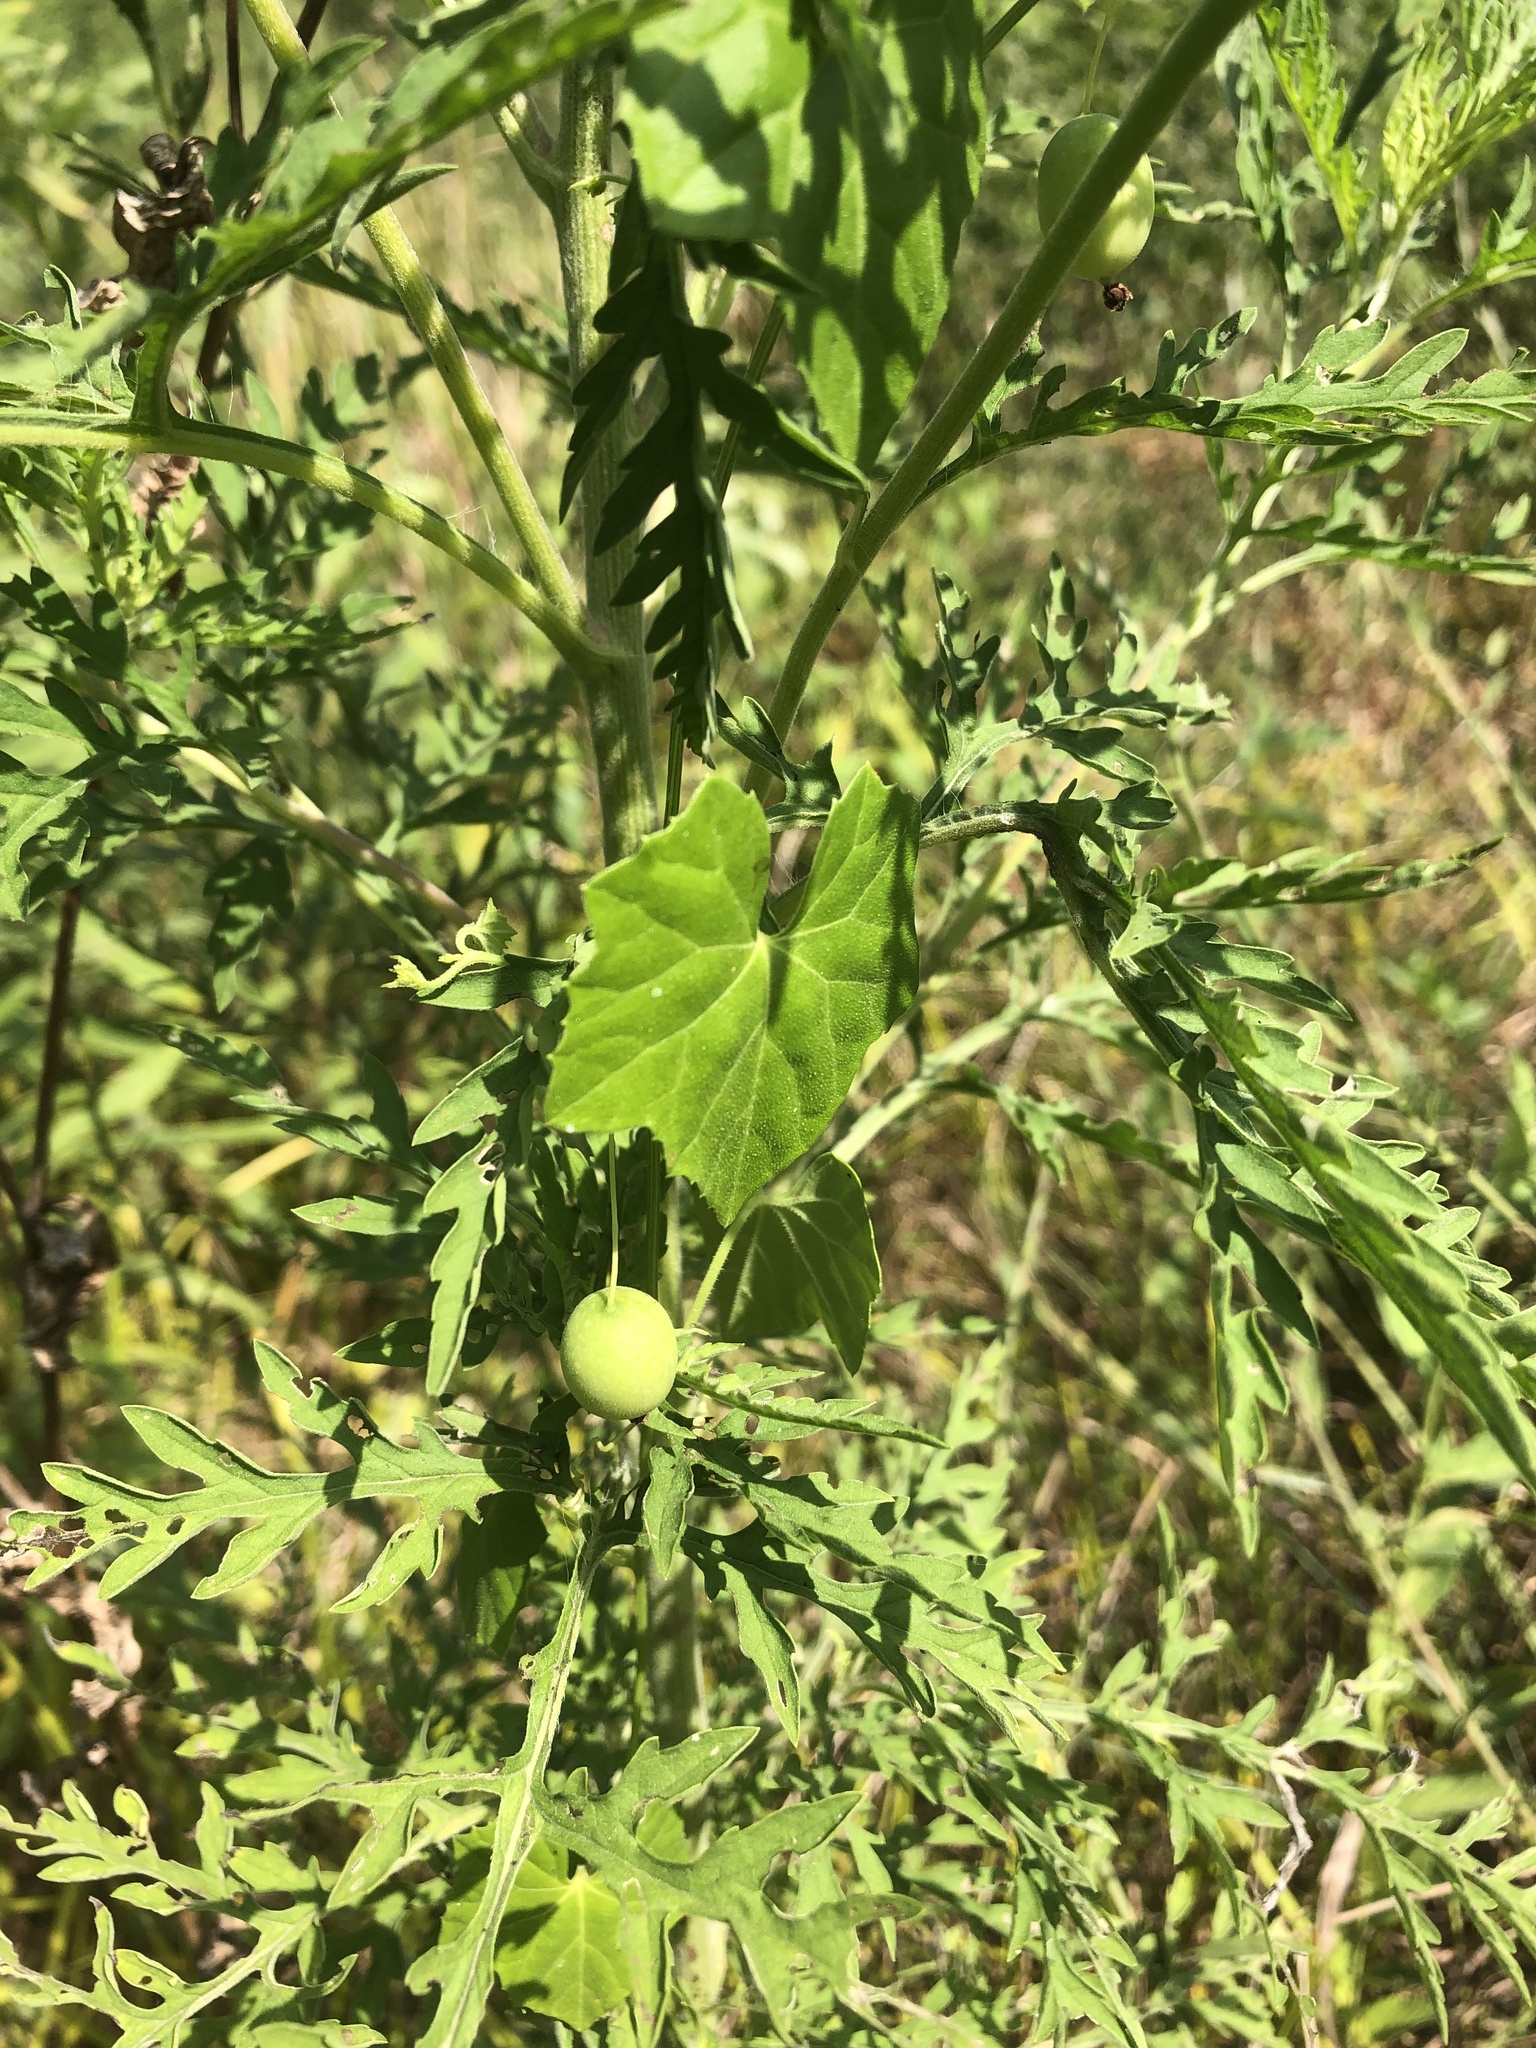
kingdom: Plantae
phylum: Tracheophyta
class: Magnoliopsida
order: Vitales
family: Vitaceae
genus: Vitis
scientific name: Vitis rotundifolia
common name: Muscadine grape
